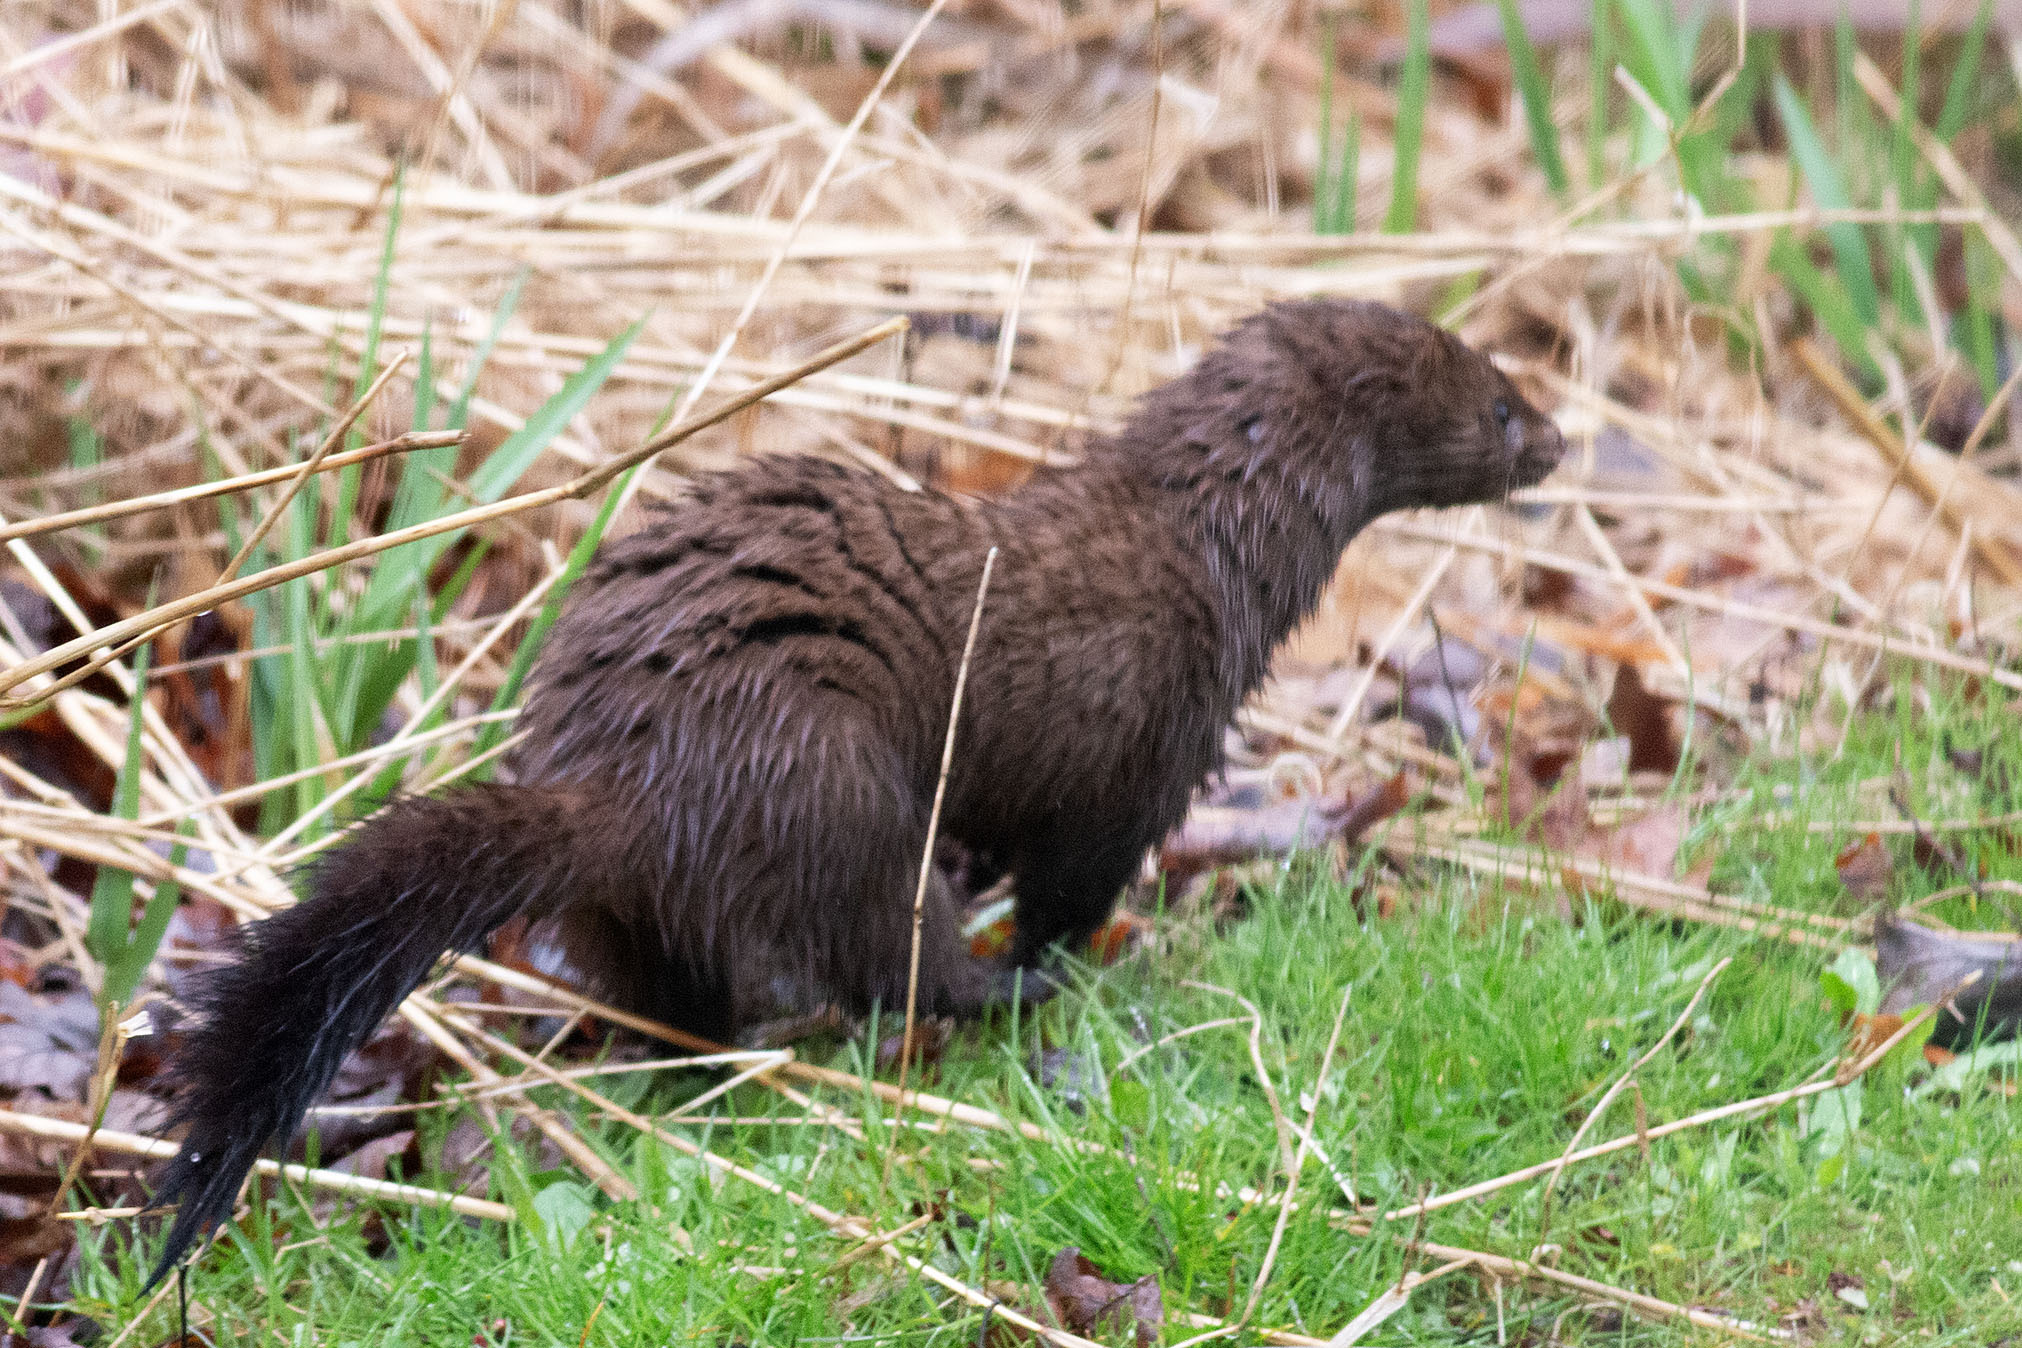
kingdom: Animalia
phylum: Chordata
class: Mammalia
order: Carnivora
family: Mustelidae
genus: Mustela
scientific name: Mustela
